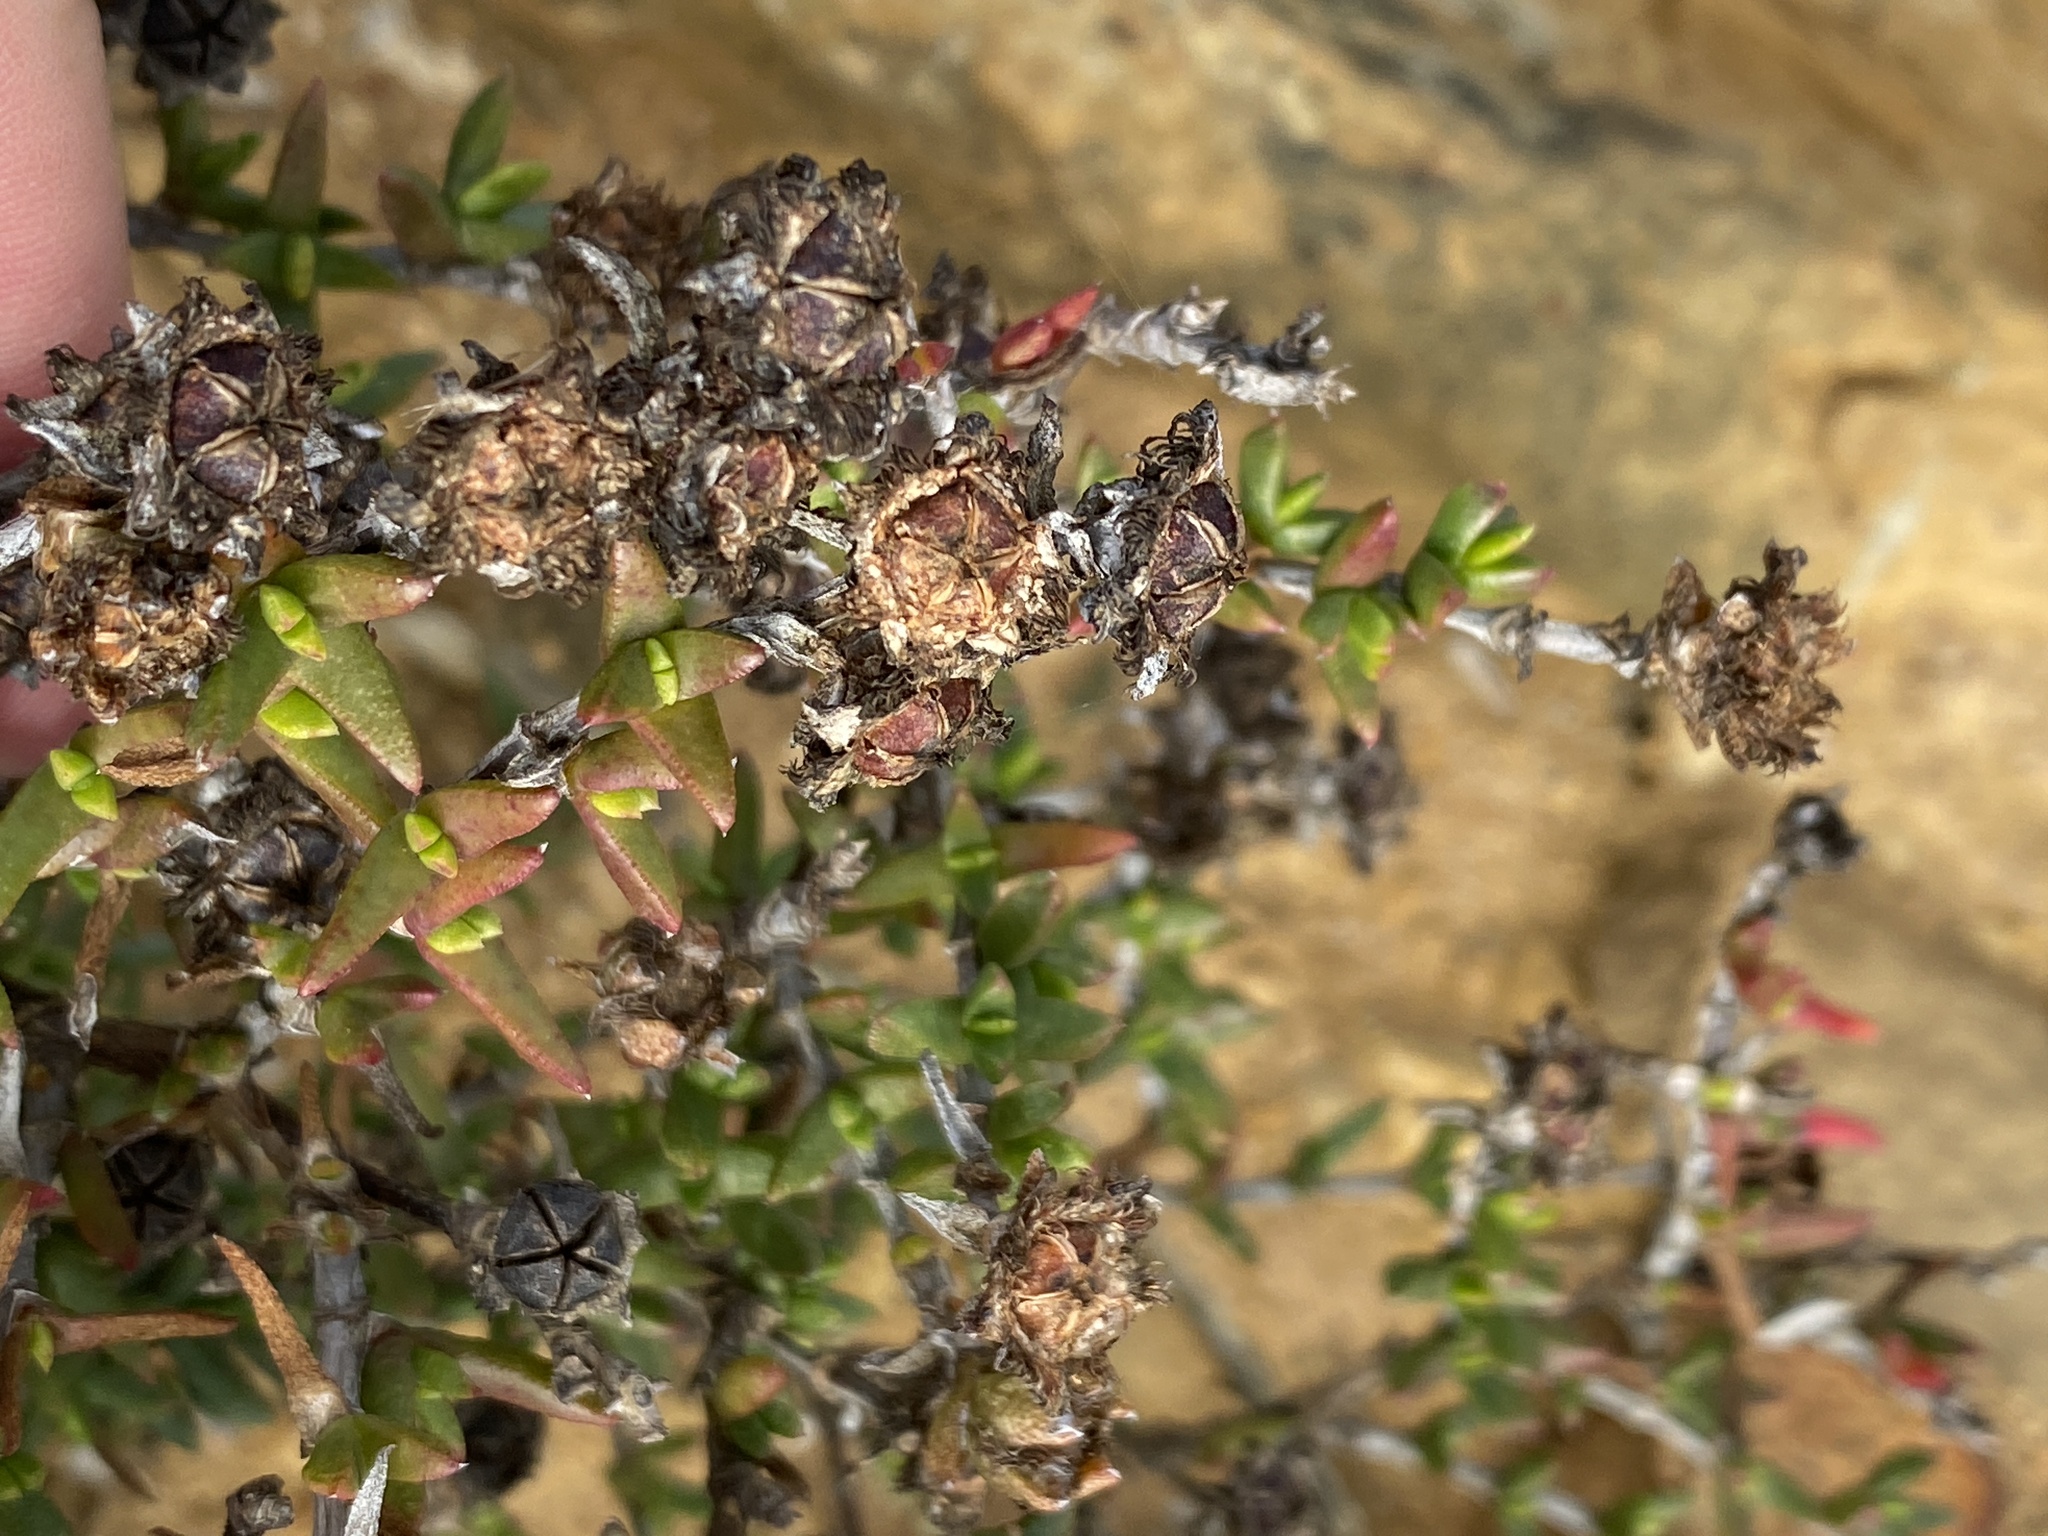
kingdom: Plantae
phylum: Tracheophyta
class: Magnoliopsida
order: Caryophyllales
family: Aizoaceae
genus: Erepsia
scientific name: Erepsia bracteata
